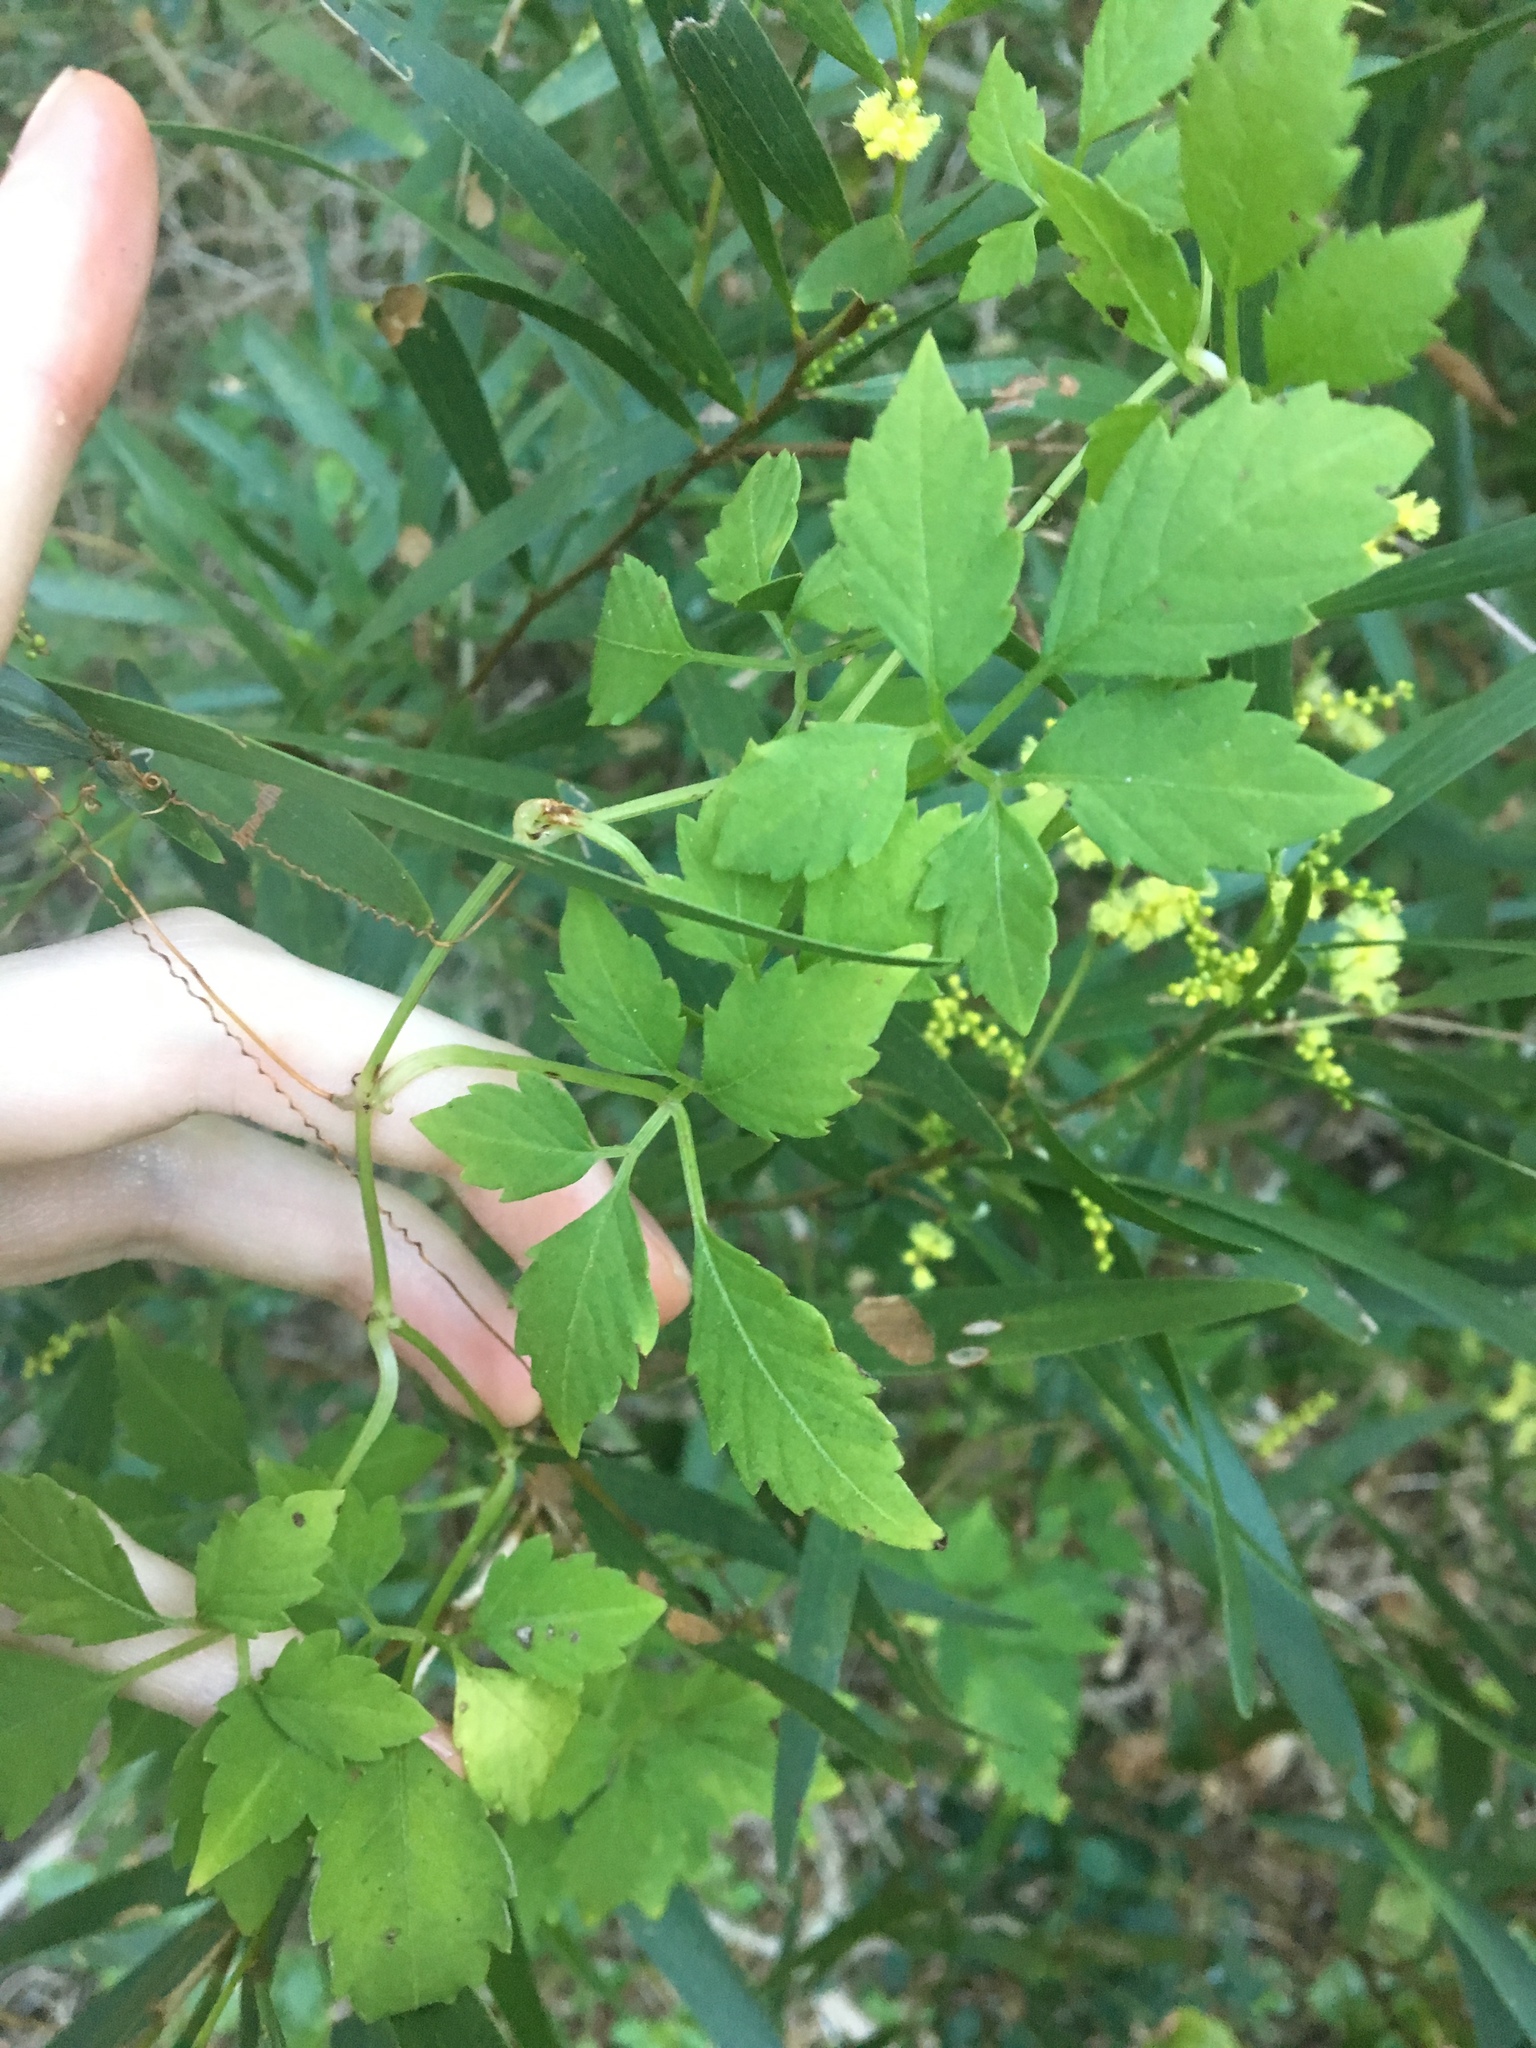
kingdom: Plantae
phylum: Tracheophyta
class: Magnoliopsida
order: Vitales
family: Vitaceae
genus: Causonis
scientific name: Causonis clematidea
